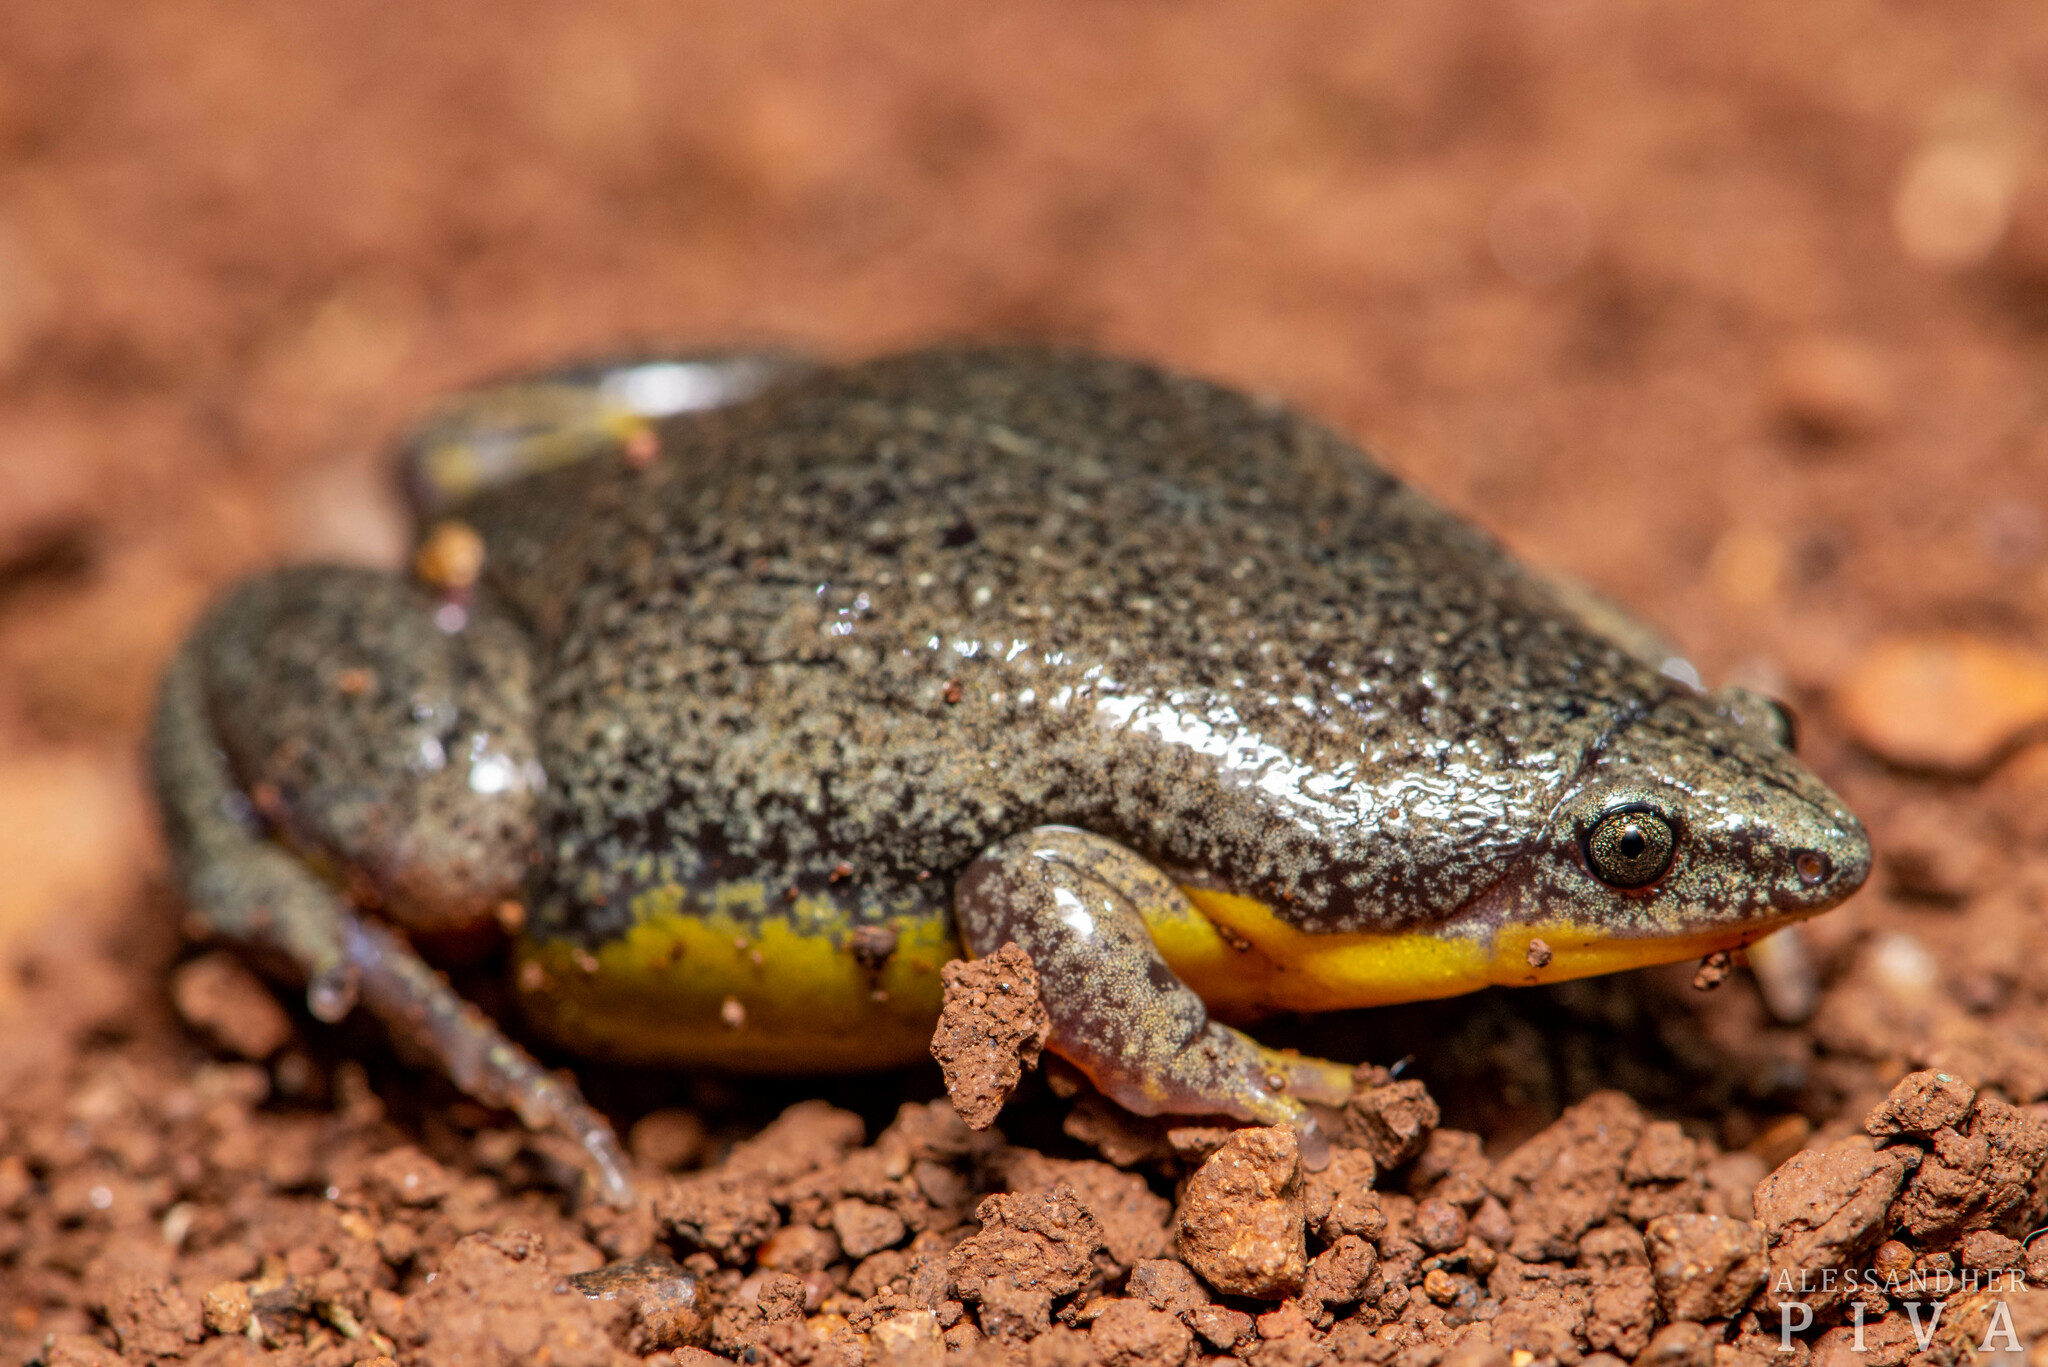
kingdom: Animalia
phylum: Chordata
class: Amphibia
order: Anura
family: Microhylidae
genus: Elachistocleis
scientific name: Elachistocleis bicolor
